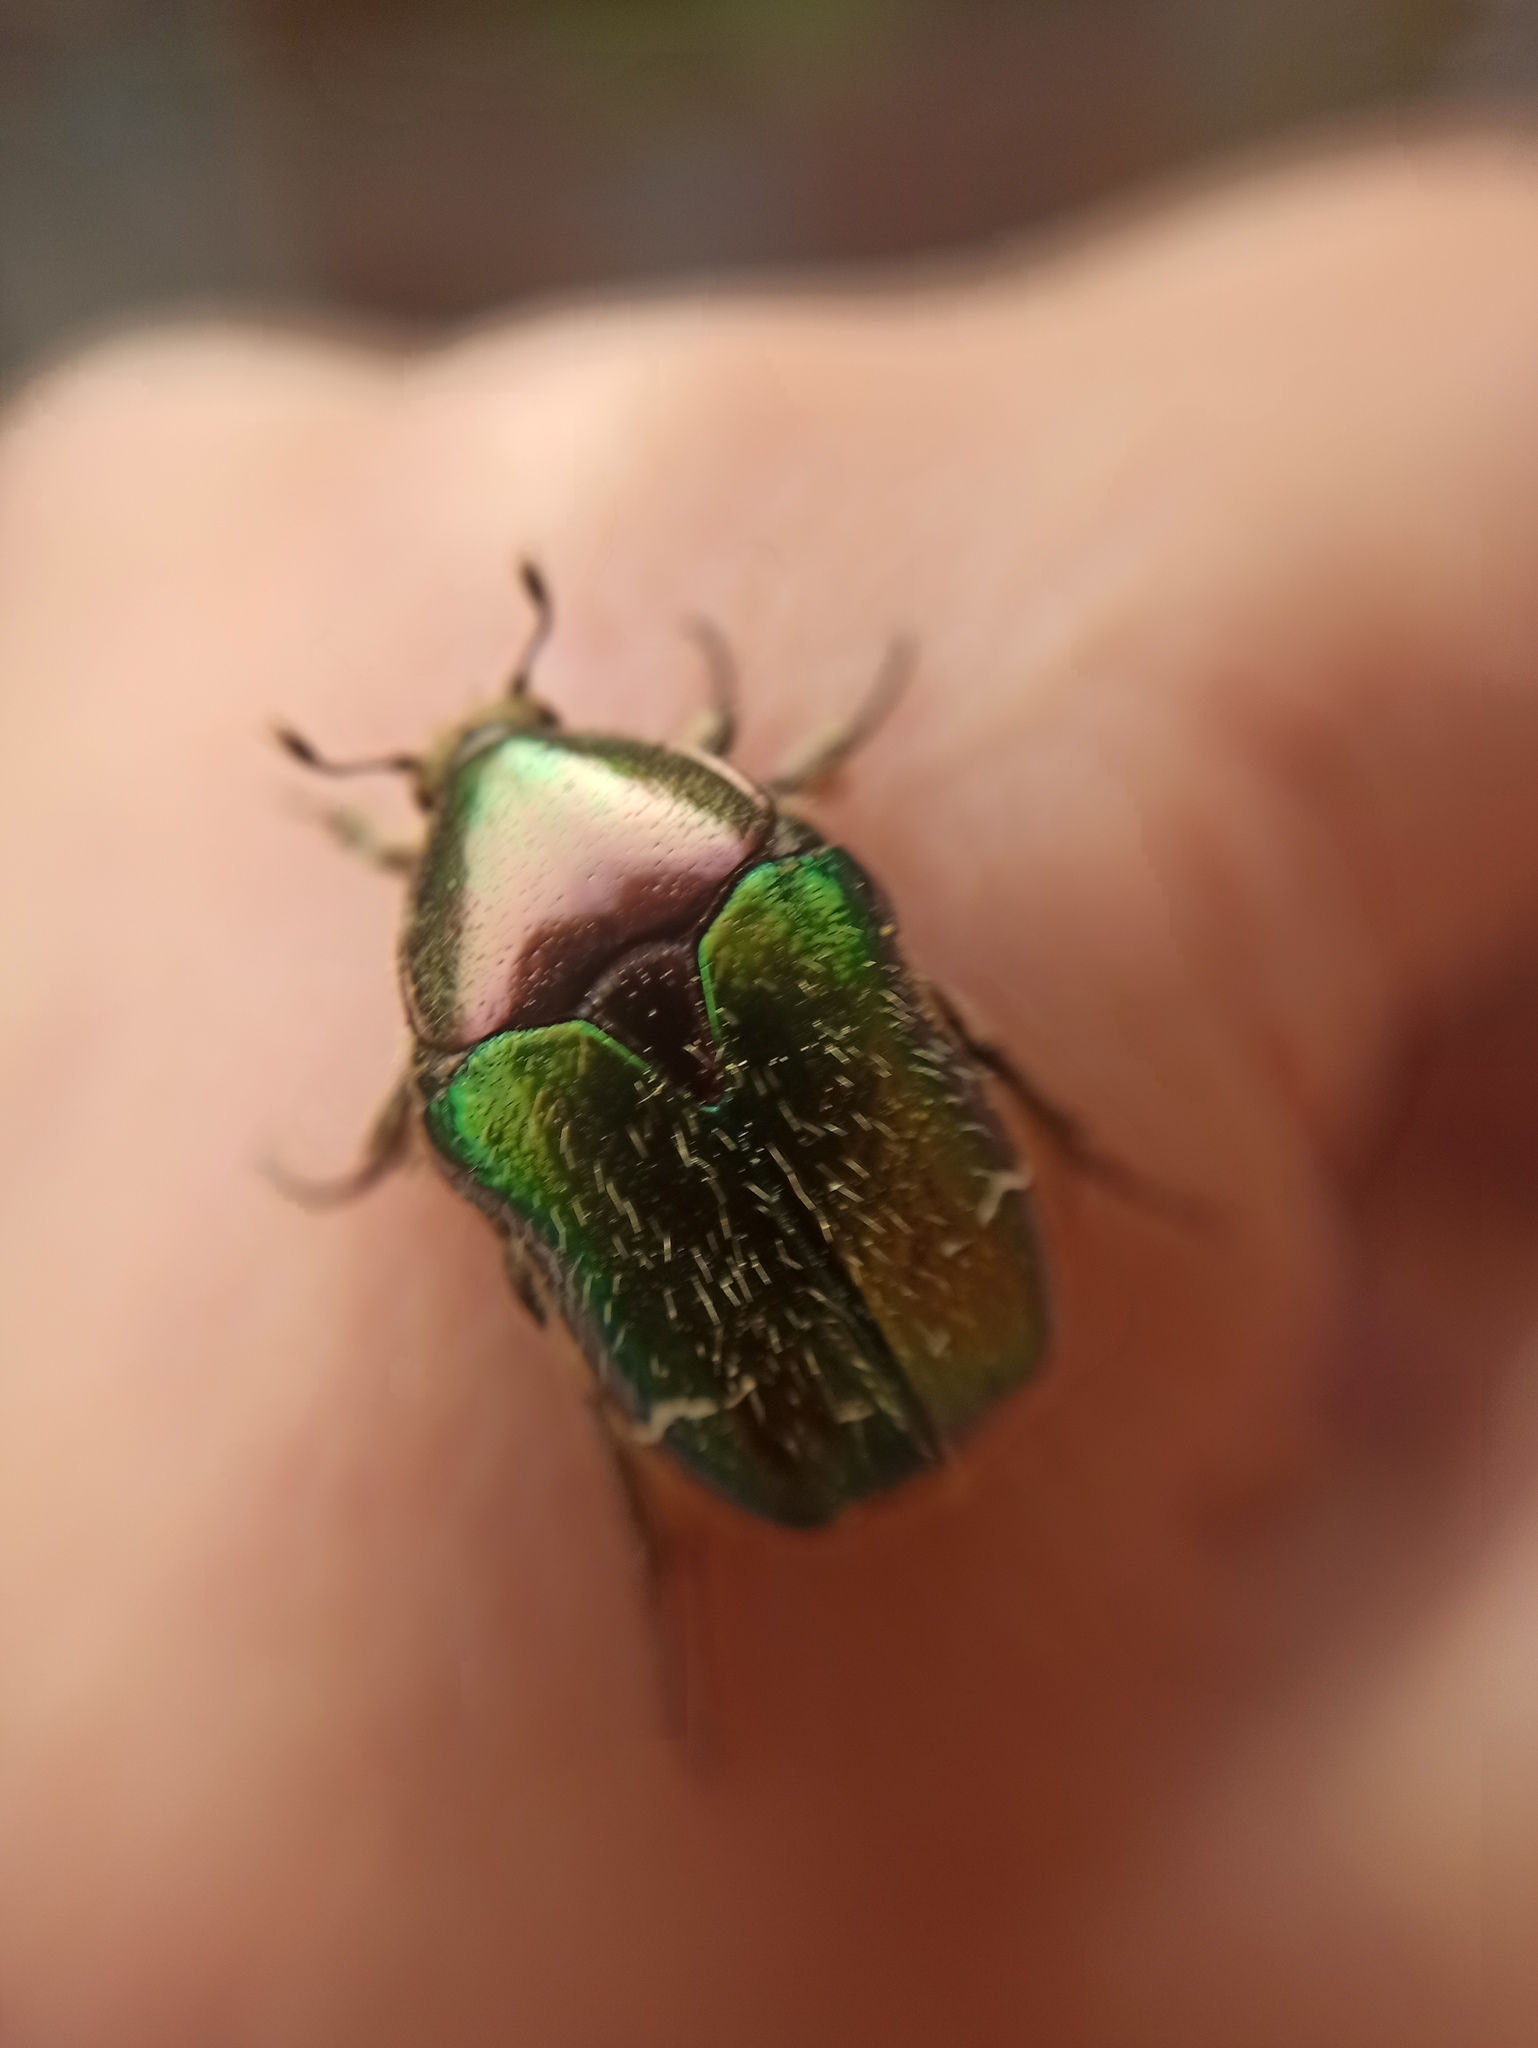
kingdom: Animalia
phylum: Arthropoda
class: Insecta
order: Coleoptera
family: Scarabaeidae
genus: Cetonia
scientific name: Cetonia aurata
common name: Rose chafer
